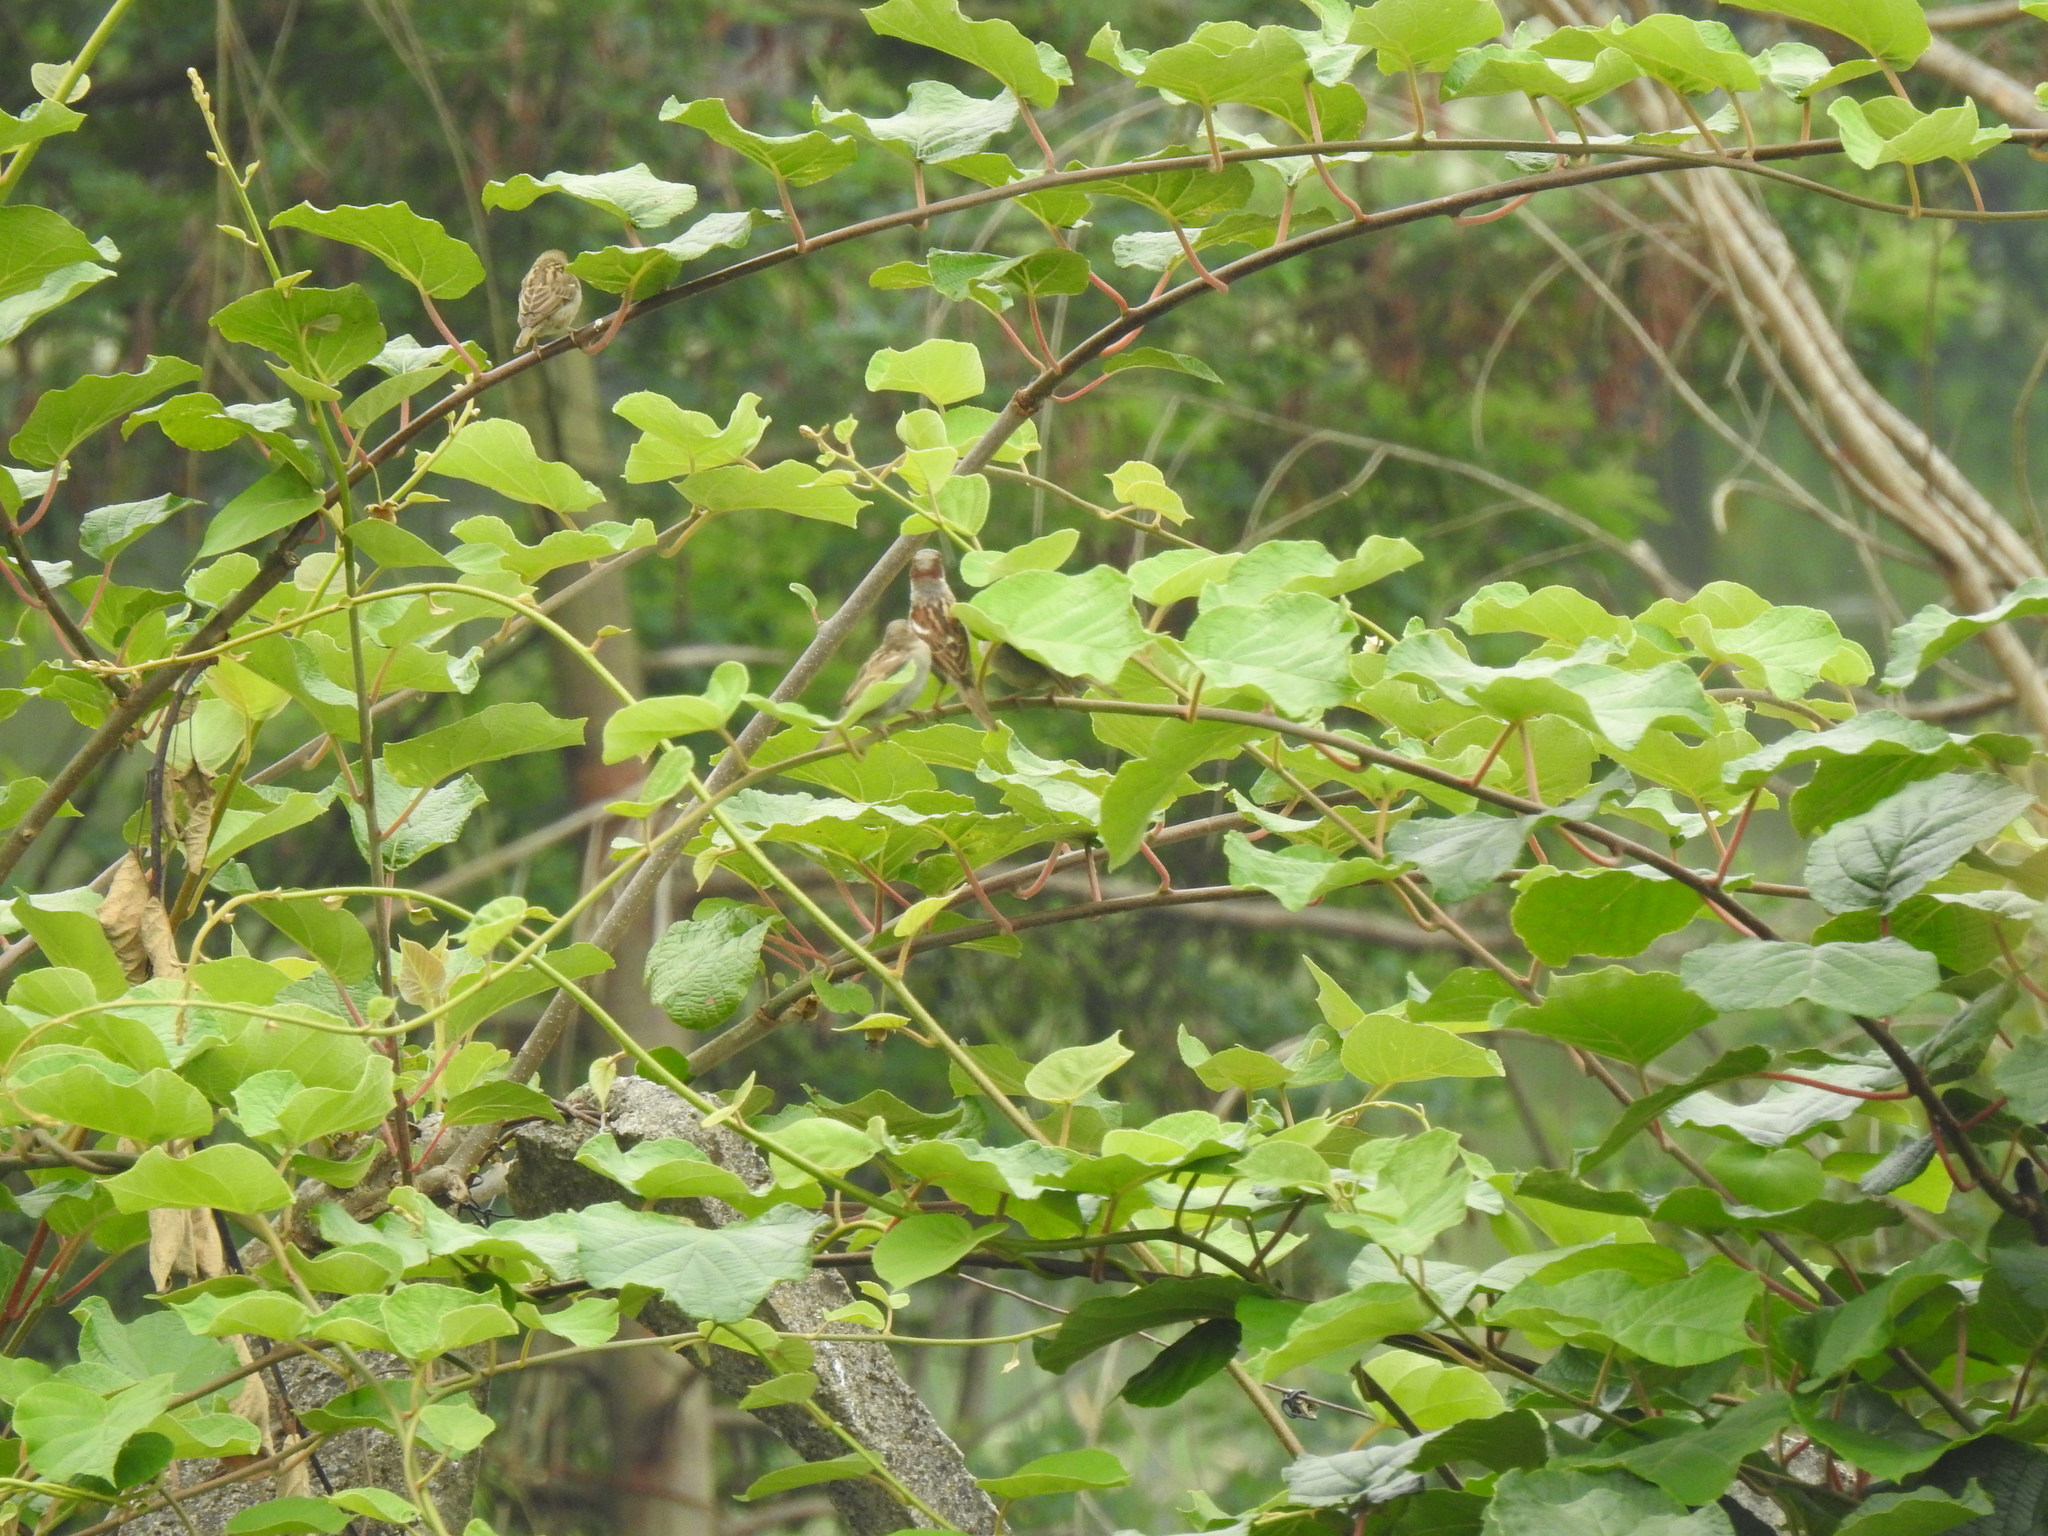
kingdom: Animalia
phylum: Chordata
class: Aves
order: Passeriformes
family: Passeridae
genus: Passer
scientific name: Passer domesticus
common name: House sparrow
